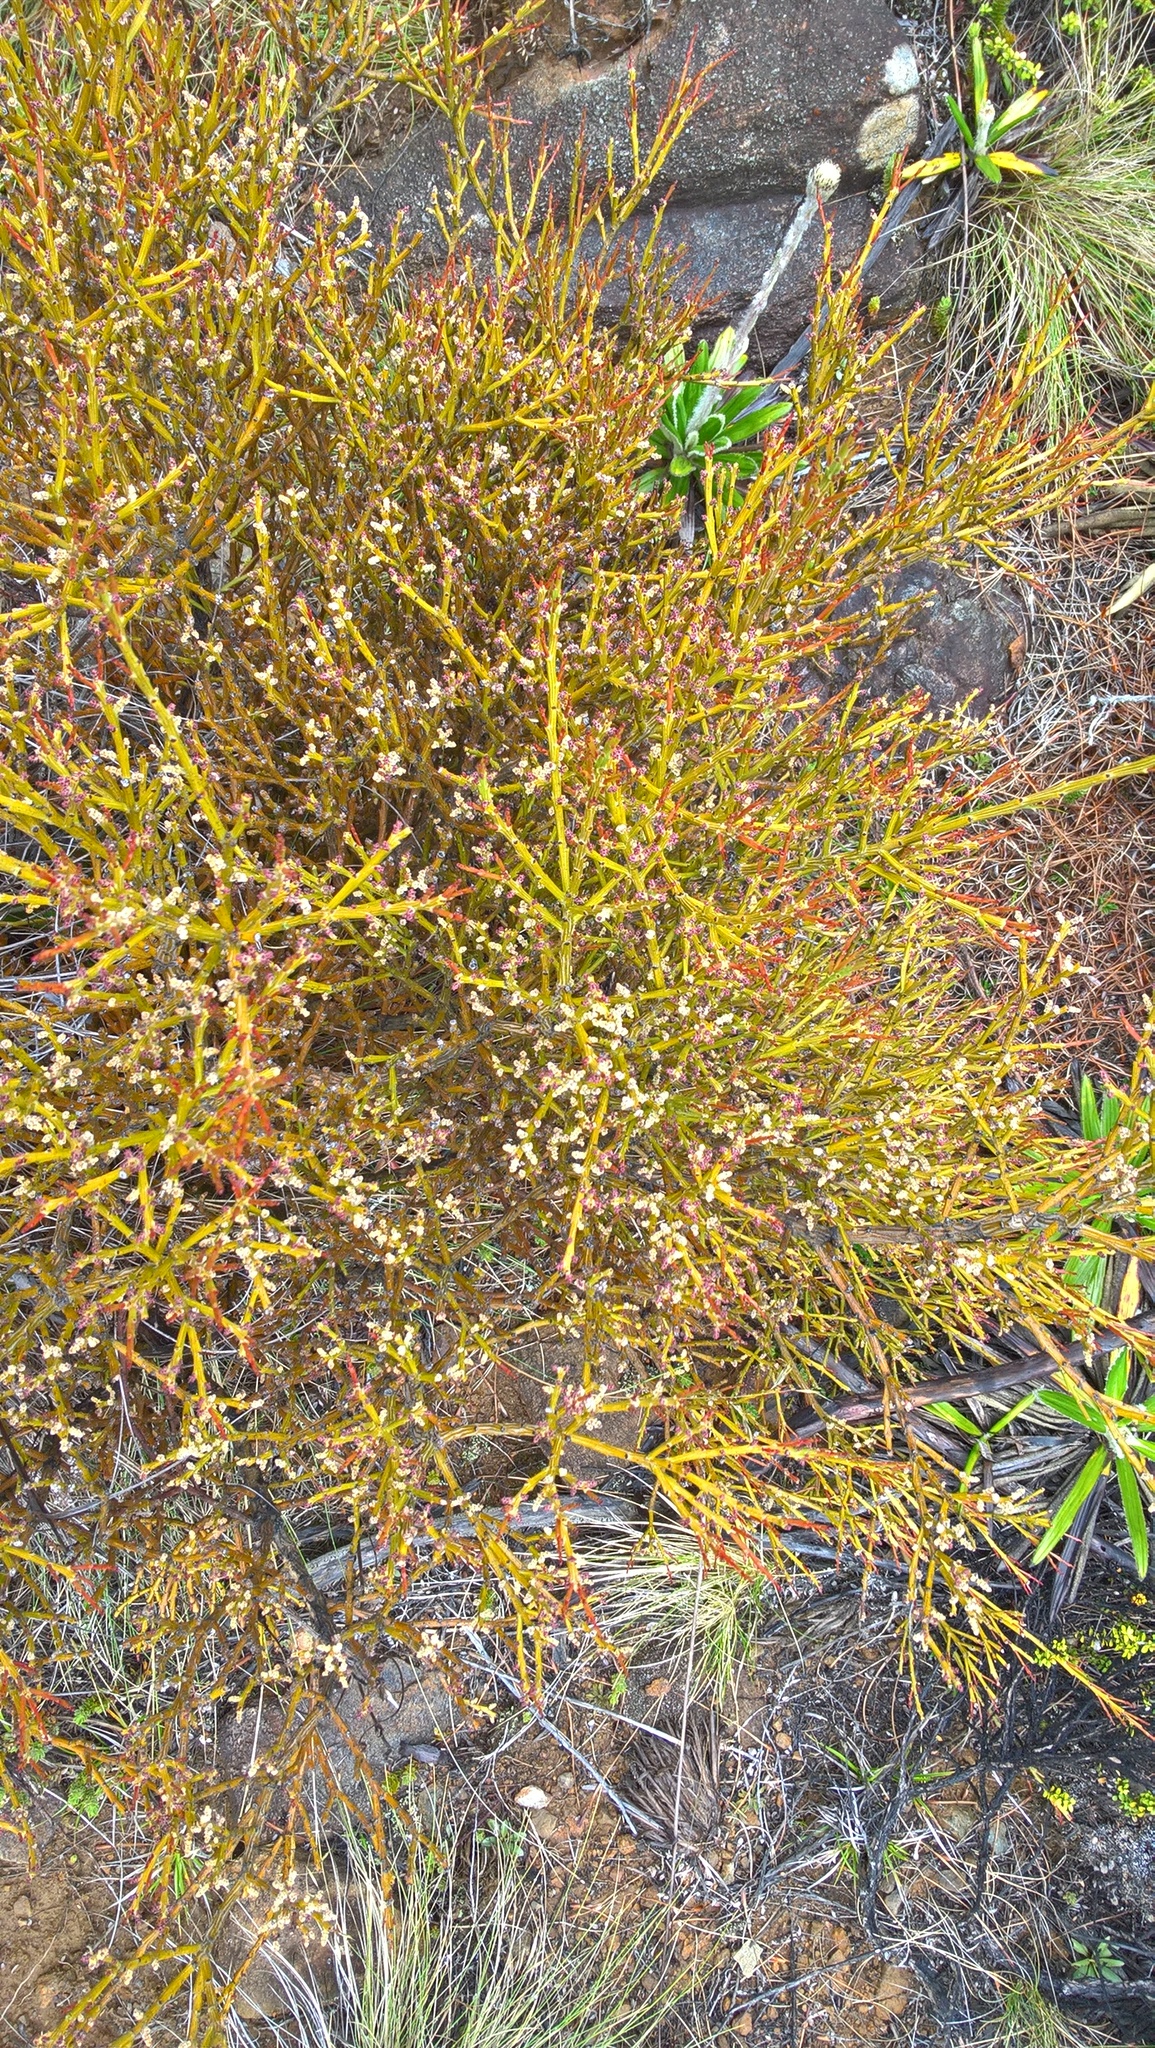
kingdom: Plantae
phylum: Tracheophyta
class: Magnoliopsida
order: Santalales
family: Santalaceae
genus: Exocarpos
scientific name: Exocarpos bidwillii
